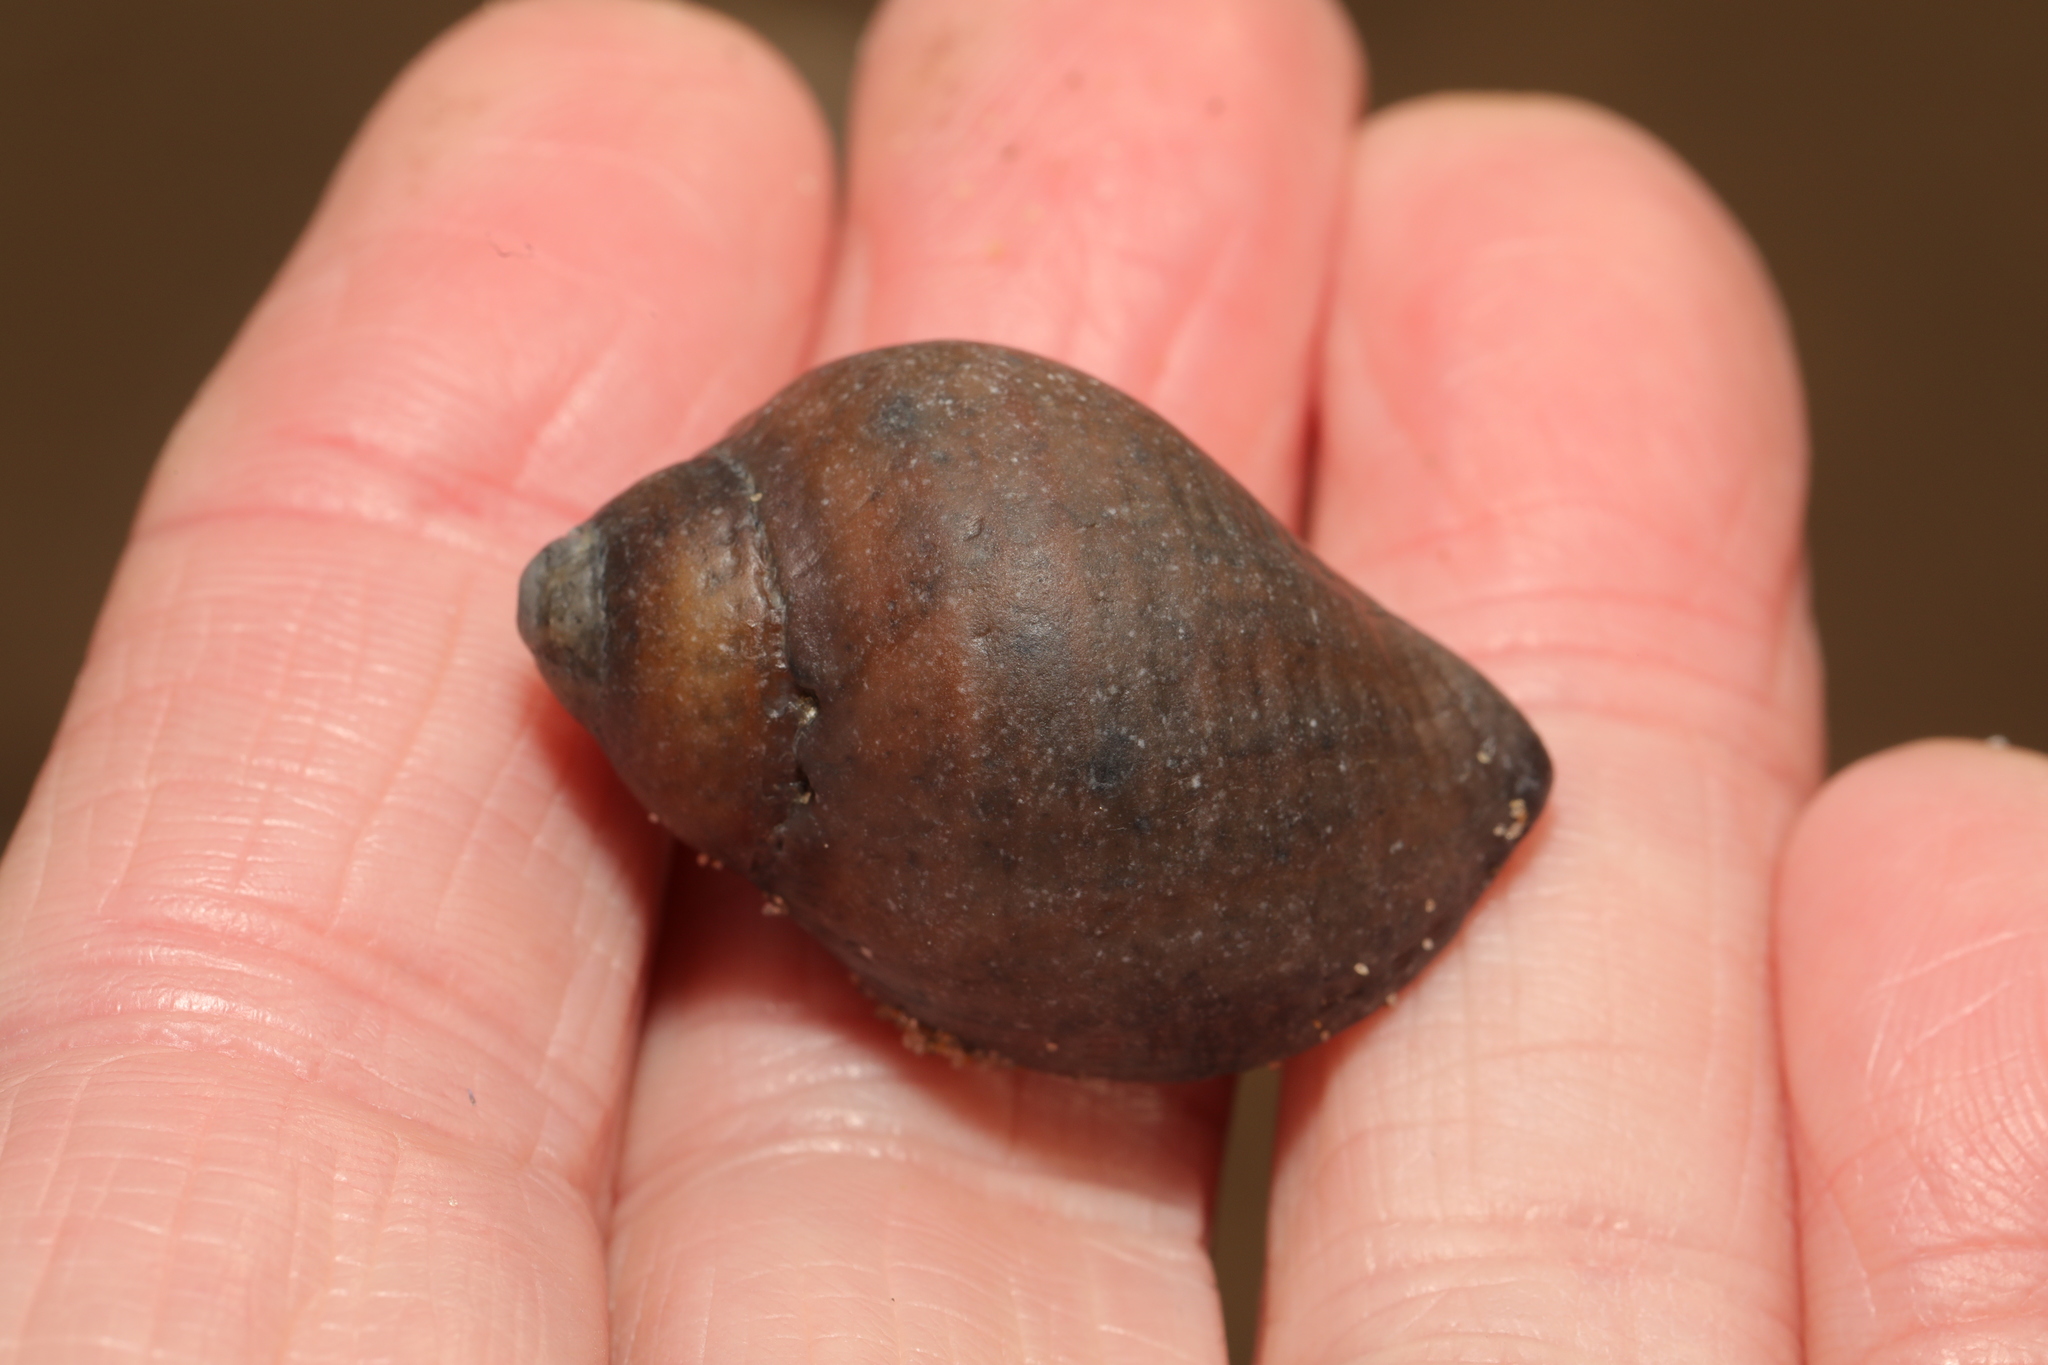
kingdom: Animalia
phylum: Mollusca
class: Gastropoda
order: Neogastropoda
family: Muricidae
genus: Nucella
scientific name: Nucella lapillus
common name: Dog whelk
